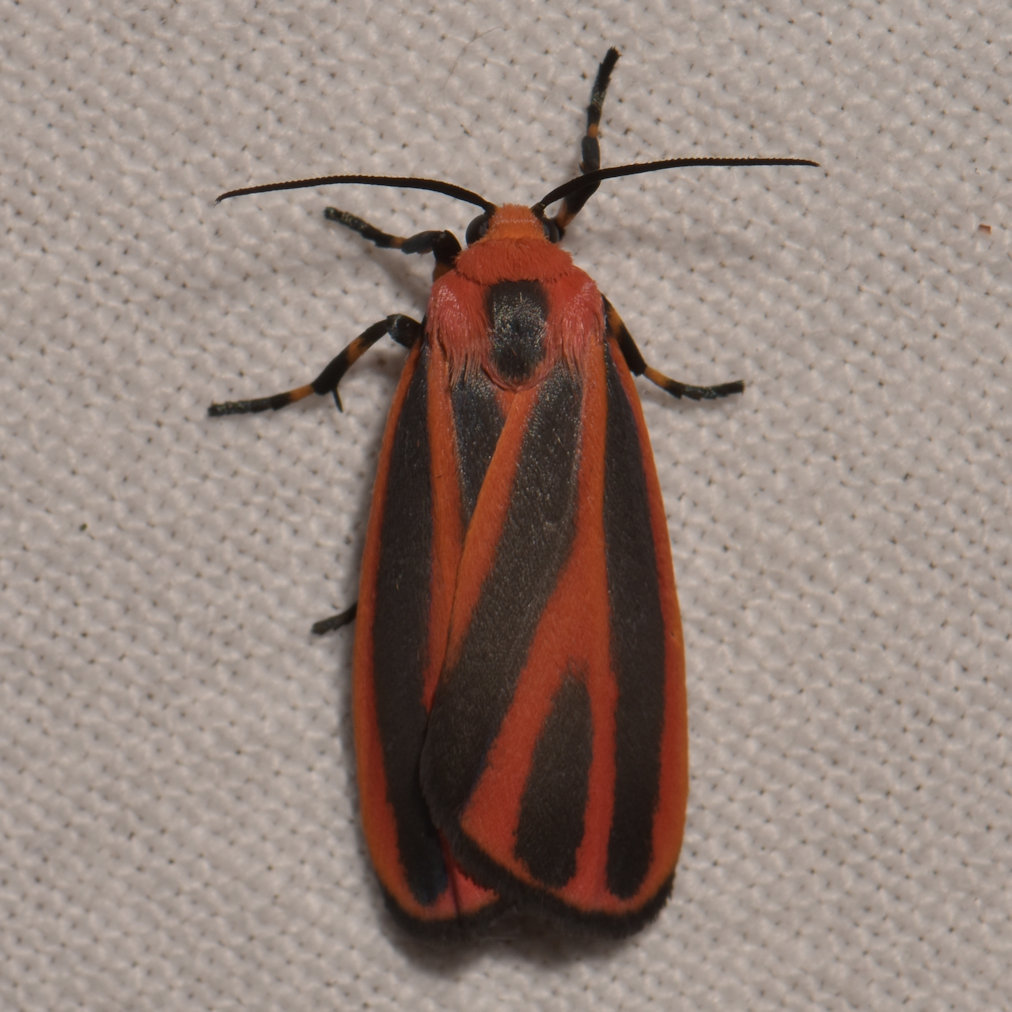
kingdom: Animalia
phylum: Arthropoda
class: Insecta
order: Lepidoptera
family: Erebidae
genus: Hypoprepia
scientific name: Hypoprepia miniata
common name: Scarlet-winged lichen moth
